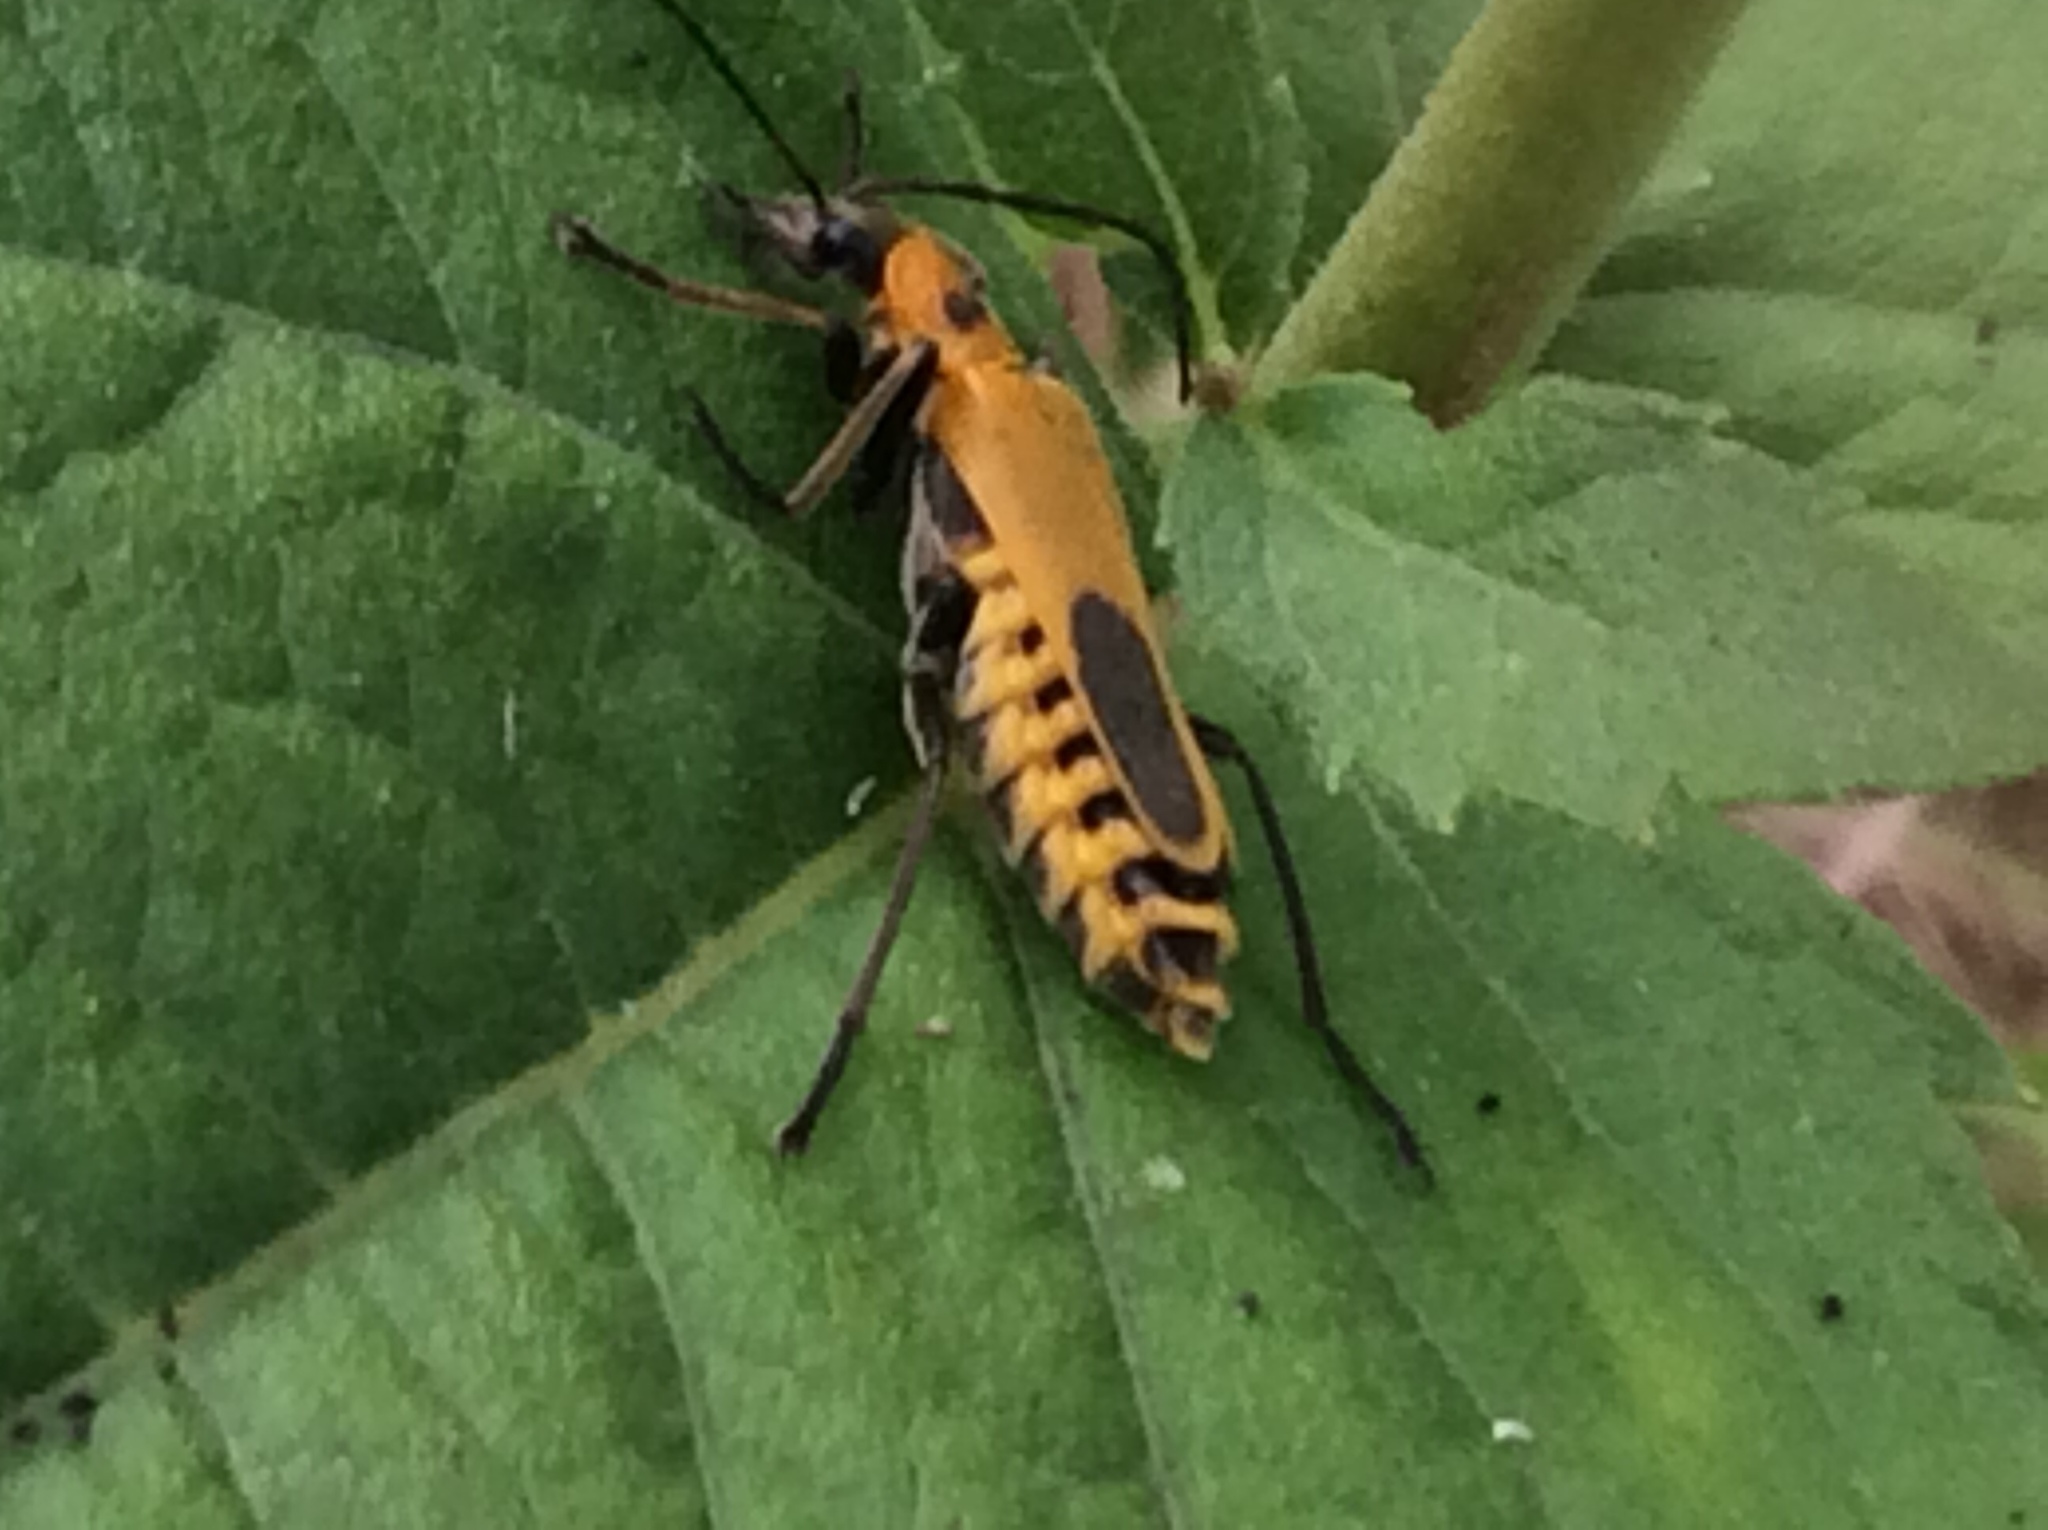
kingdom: Animalia
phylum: Arthropoda
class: Insecta
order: Coleoptera
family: Cantharidae
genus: Chauliognathus
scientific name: Chauliognathus pensylvanicus
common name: Goldenrod soldier beetle
